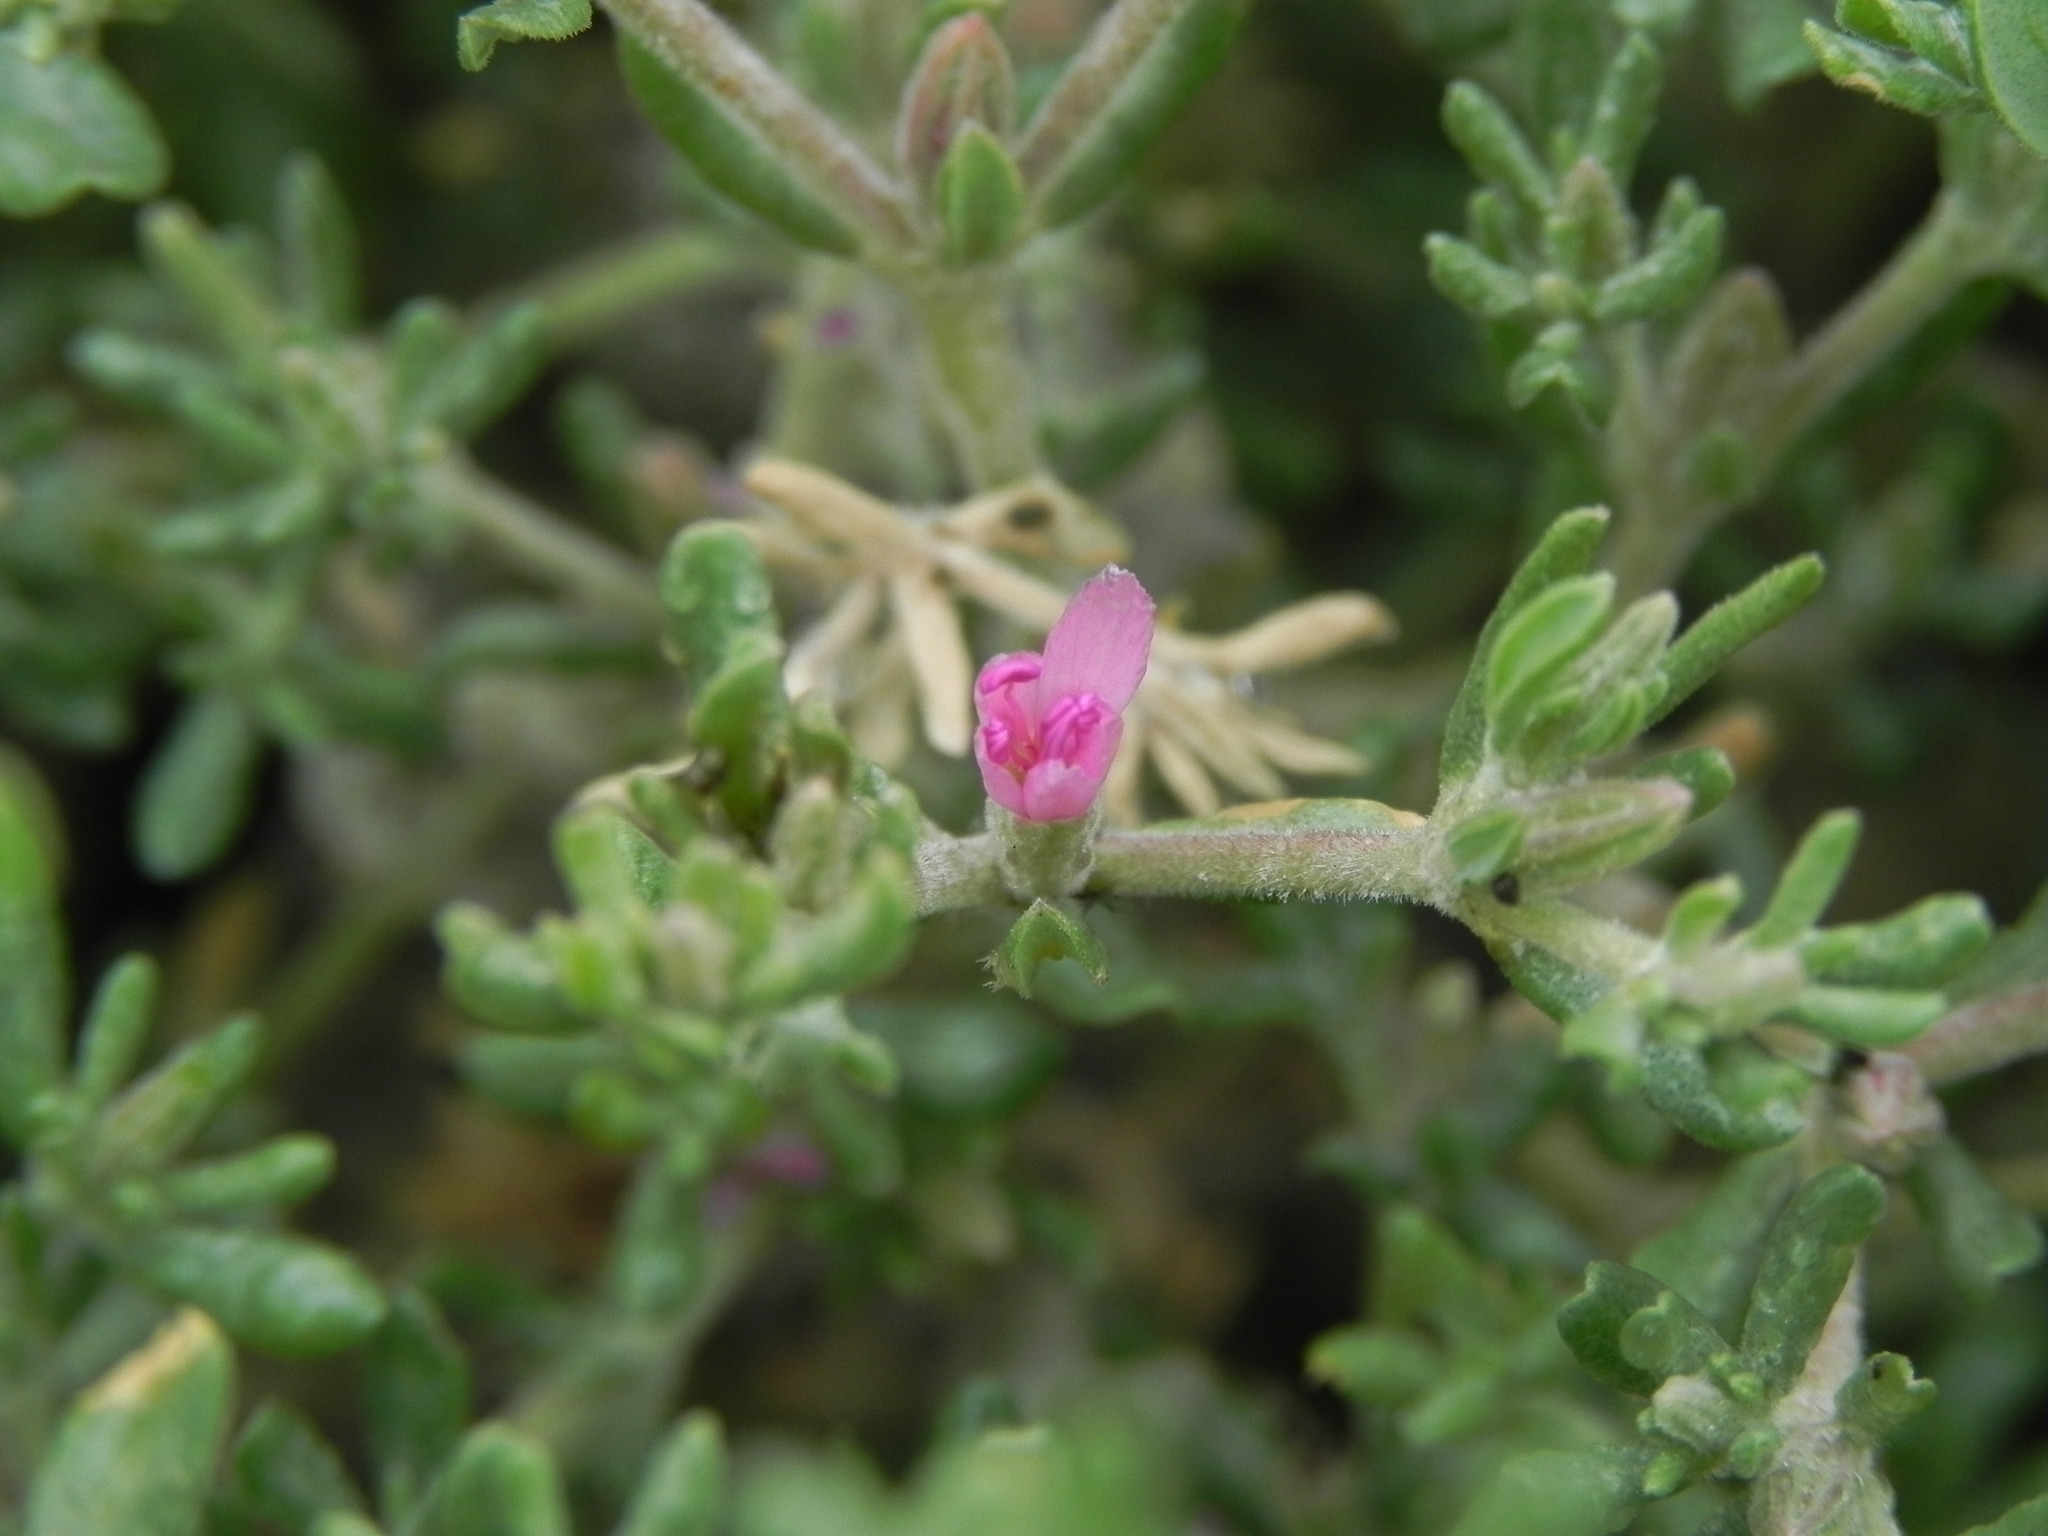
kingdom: Plantae
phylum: Tracheophyta
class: Magnoliopsida
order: Caryophyllales
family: Frankeniaceae
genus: Frankenia
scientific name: Frankenia salina
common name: Alkali seaheath
